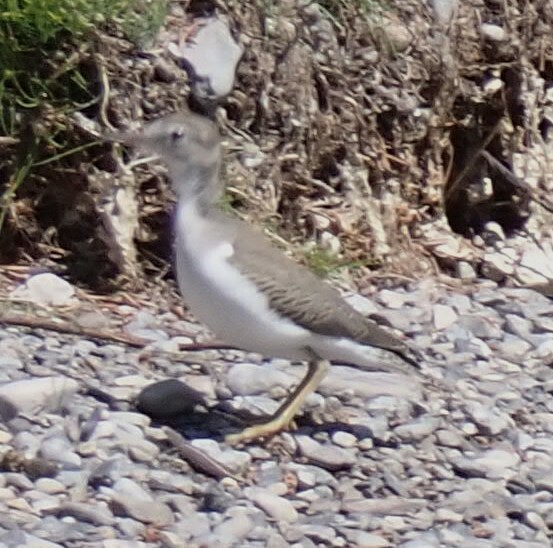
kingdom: Animalia
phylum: Chordata
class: Aves
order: Charadriiformes
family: Scolopacidae
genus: Actitis
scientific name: Actitis macularius
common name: Spotted sandpiper
